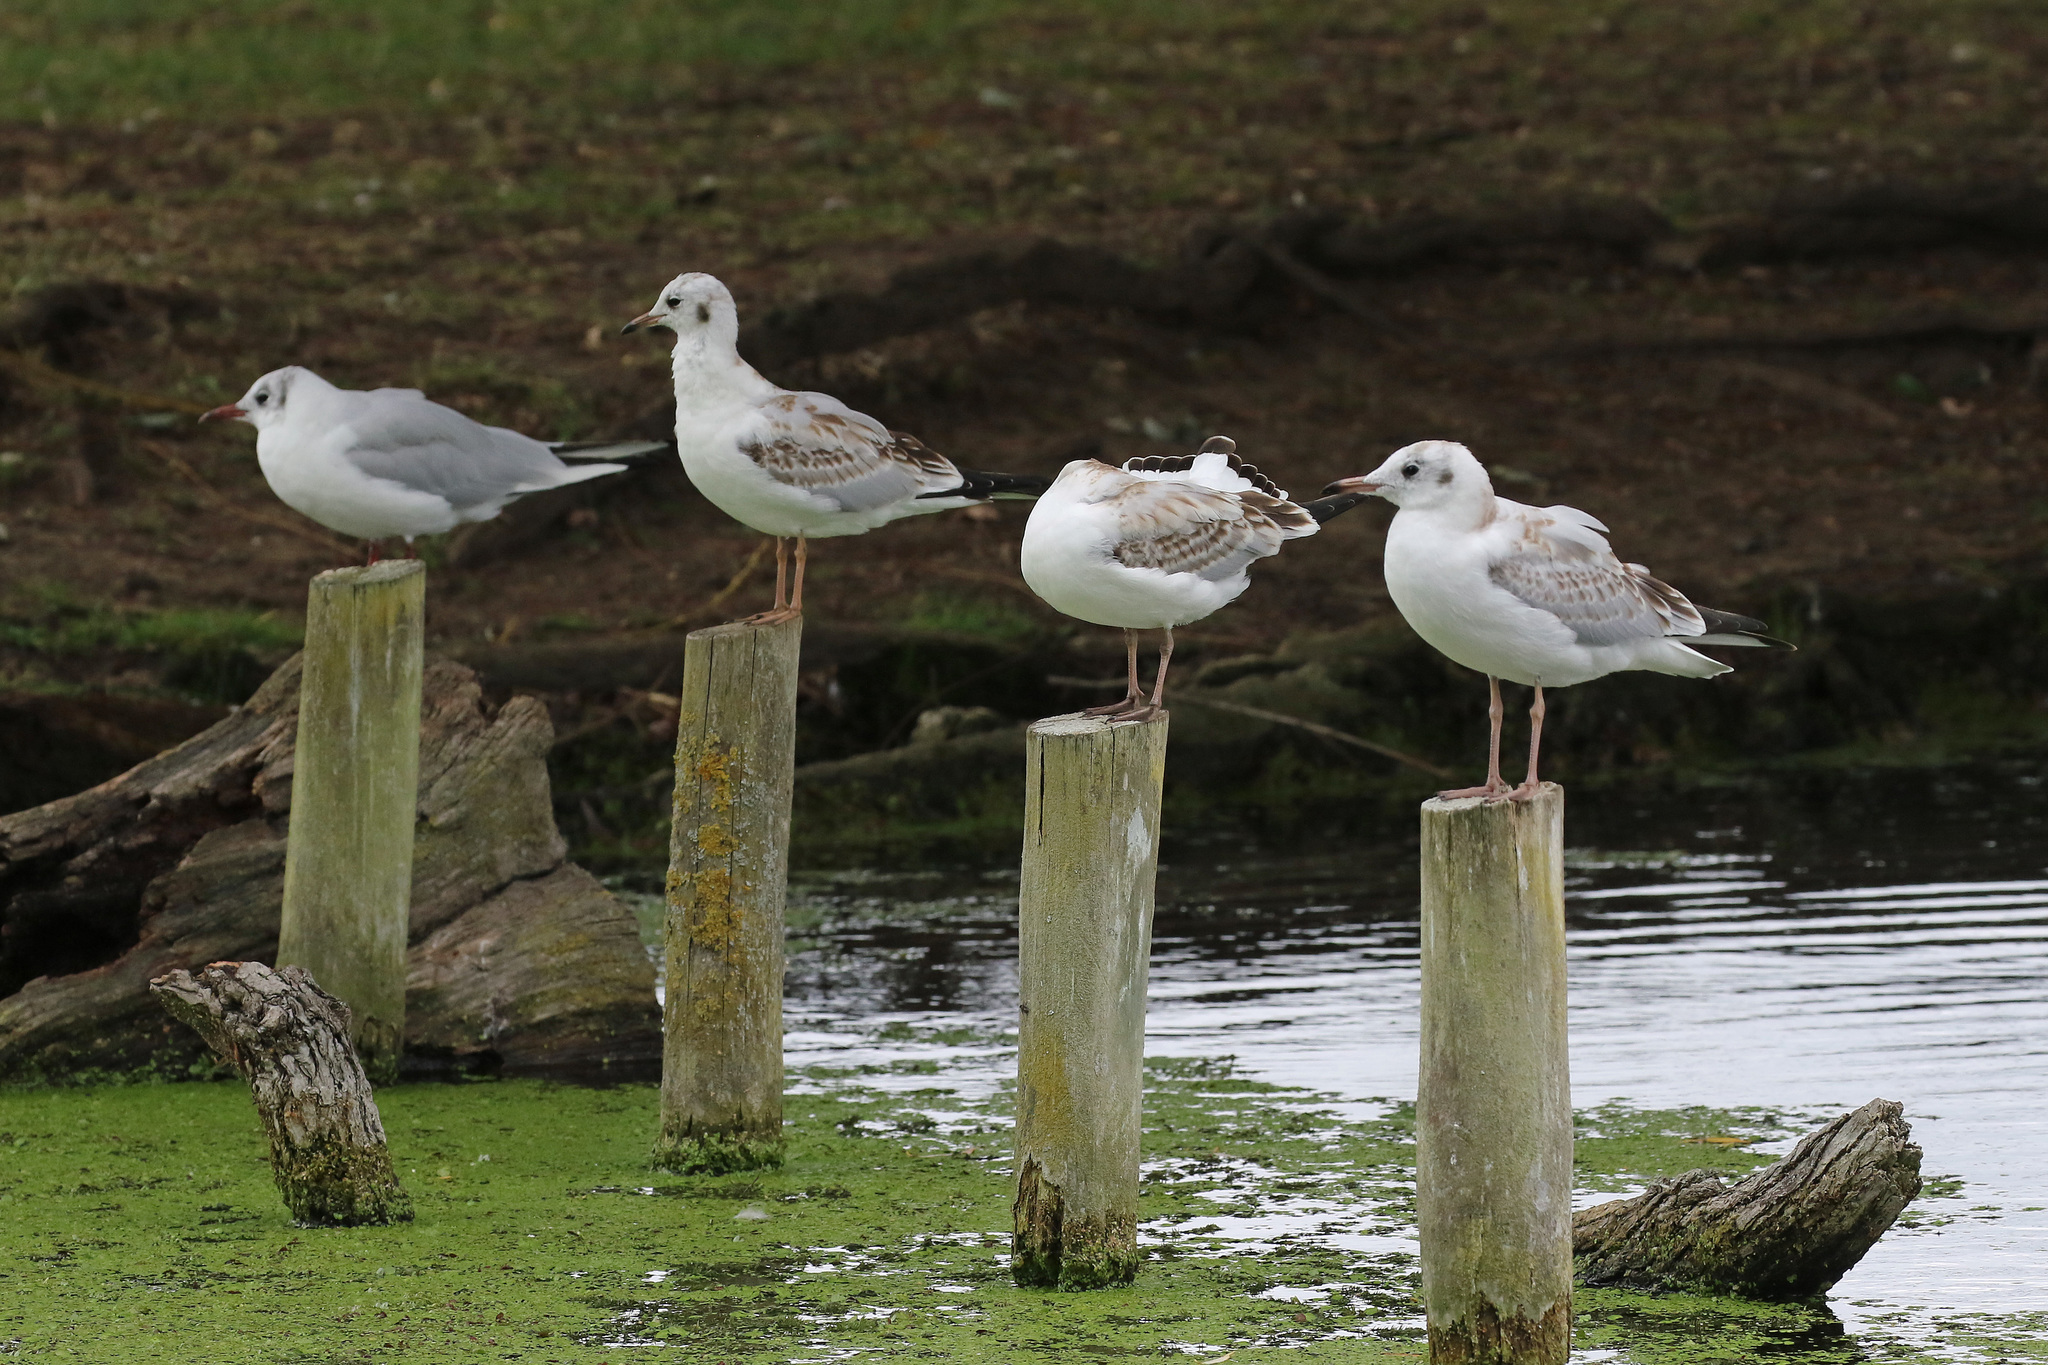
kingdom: Animalia
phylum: Chordata
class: Aves
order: Charadriiformes
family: Laridae
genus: Chroicocephalus
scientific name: Chroicocephalus ridibundus
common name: Black-headed gull
